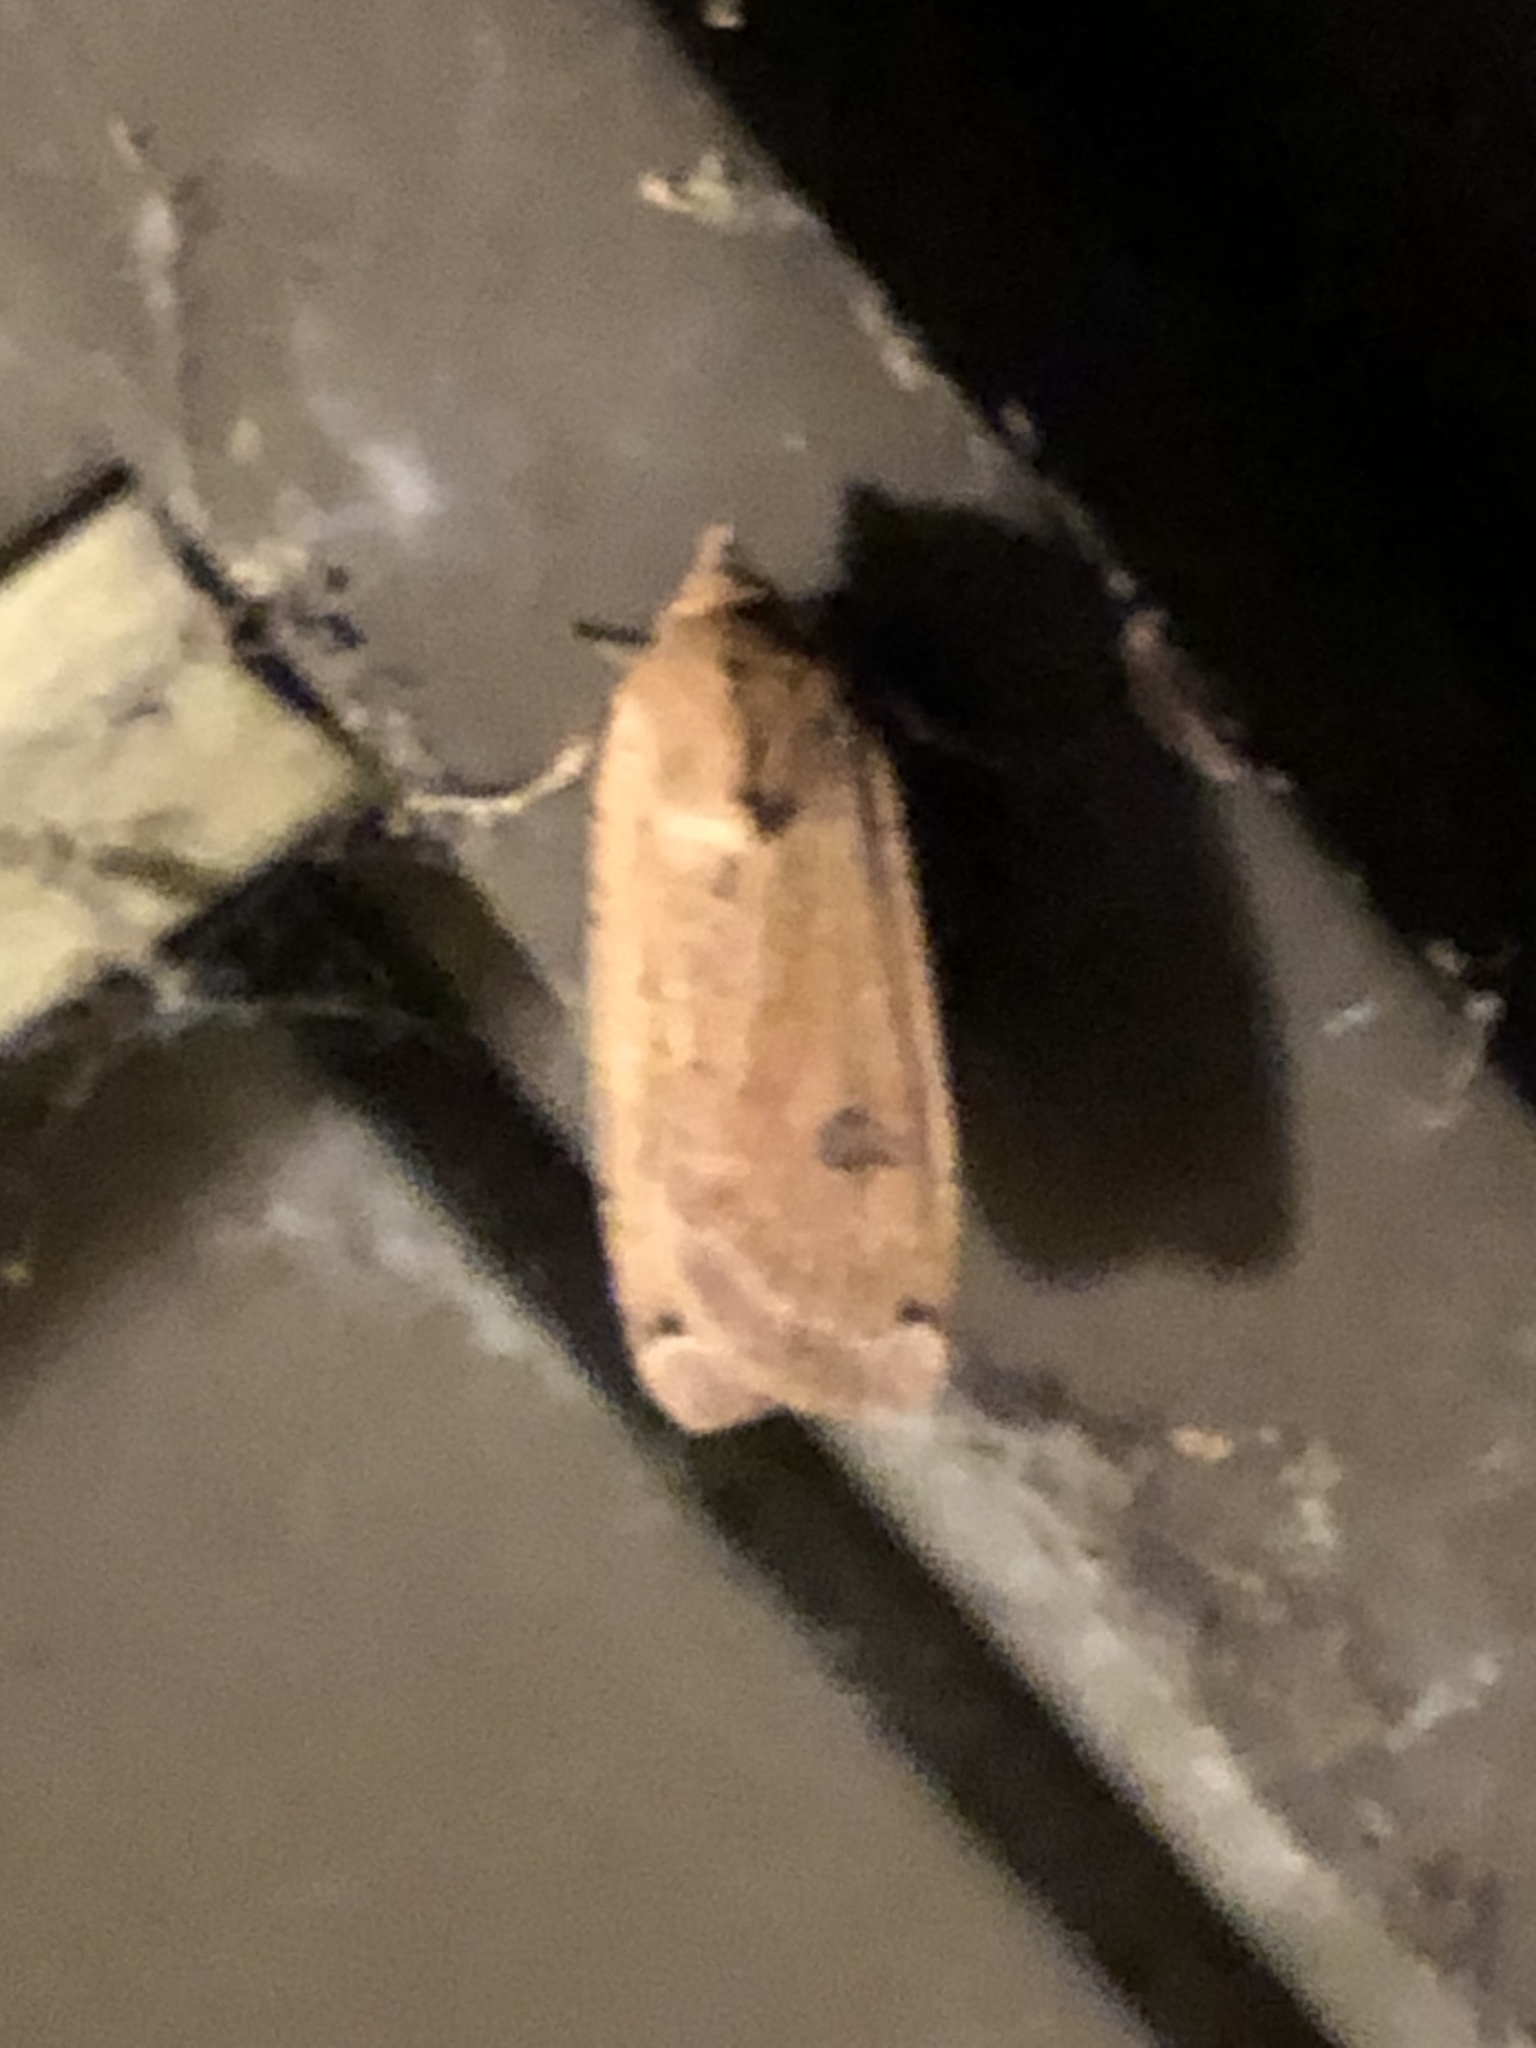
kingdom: Animalia
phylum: Arthropoda
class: Insecta
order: Lepidoptera
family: Noctuidae
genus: Noctua
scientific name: Noctua pronuba
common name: Large yellow underwing
